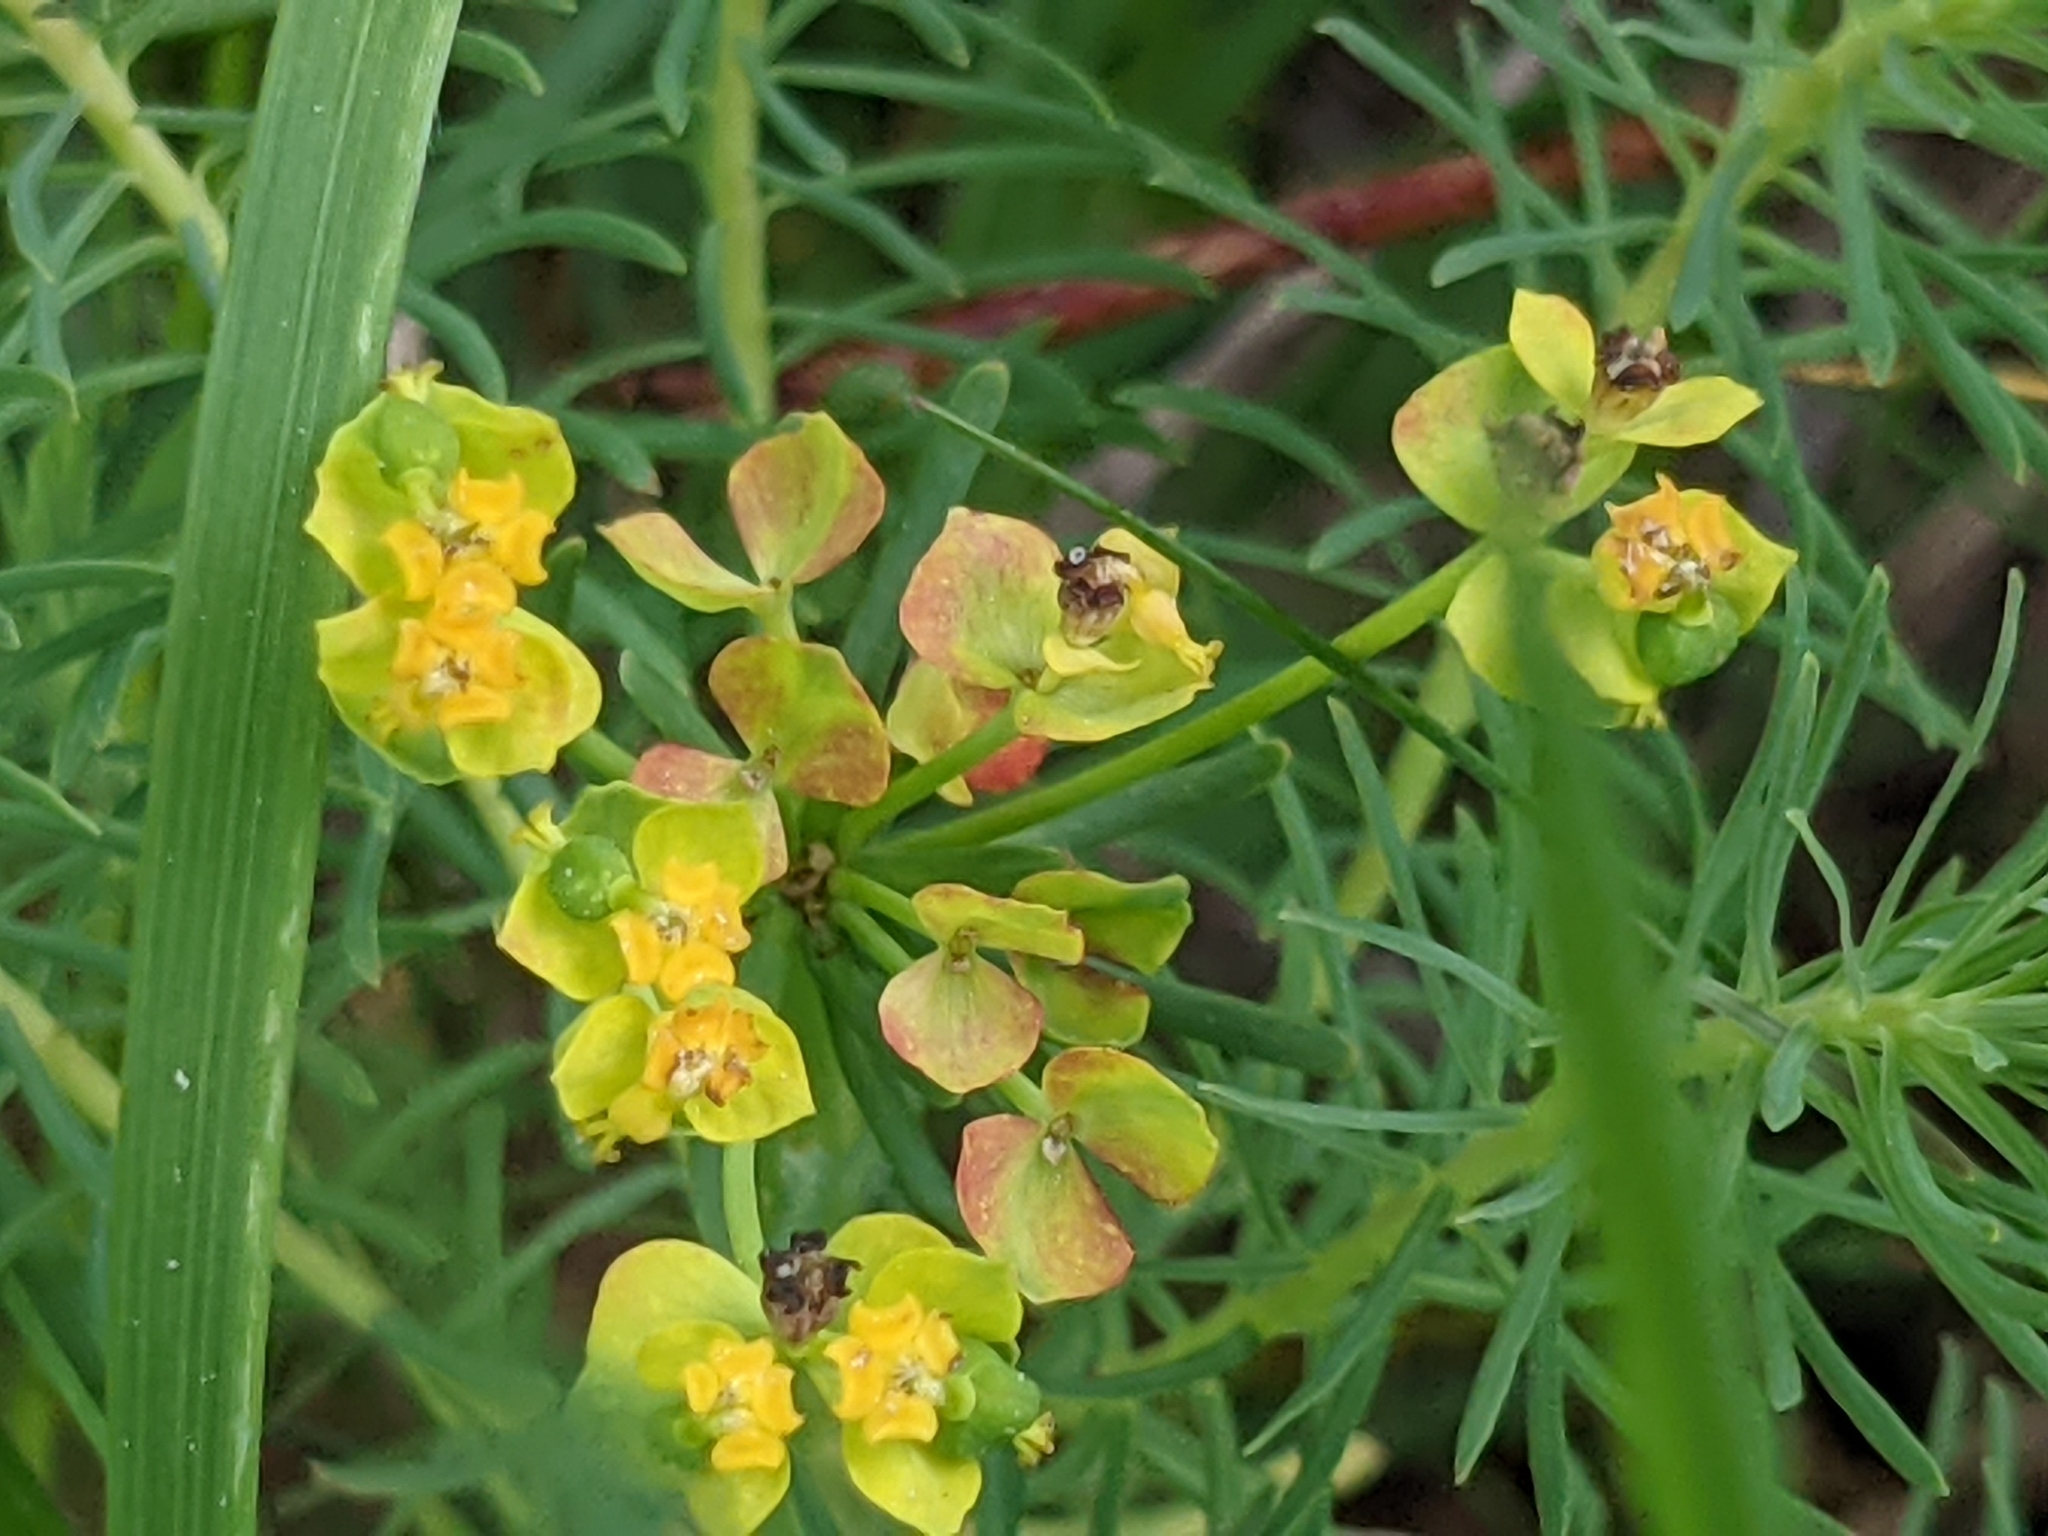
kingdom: Plantae
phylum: Tracheophyta
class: Magnoliopsida
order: Malpighiales
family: Euphorbiaceae
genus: Euphorbia
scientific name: Euphorbia cyparissias
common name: Cypress spurge
